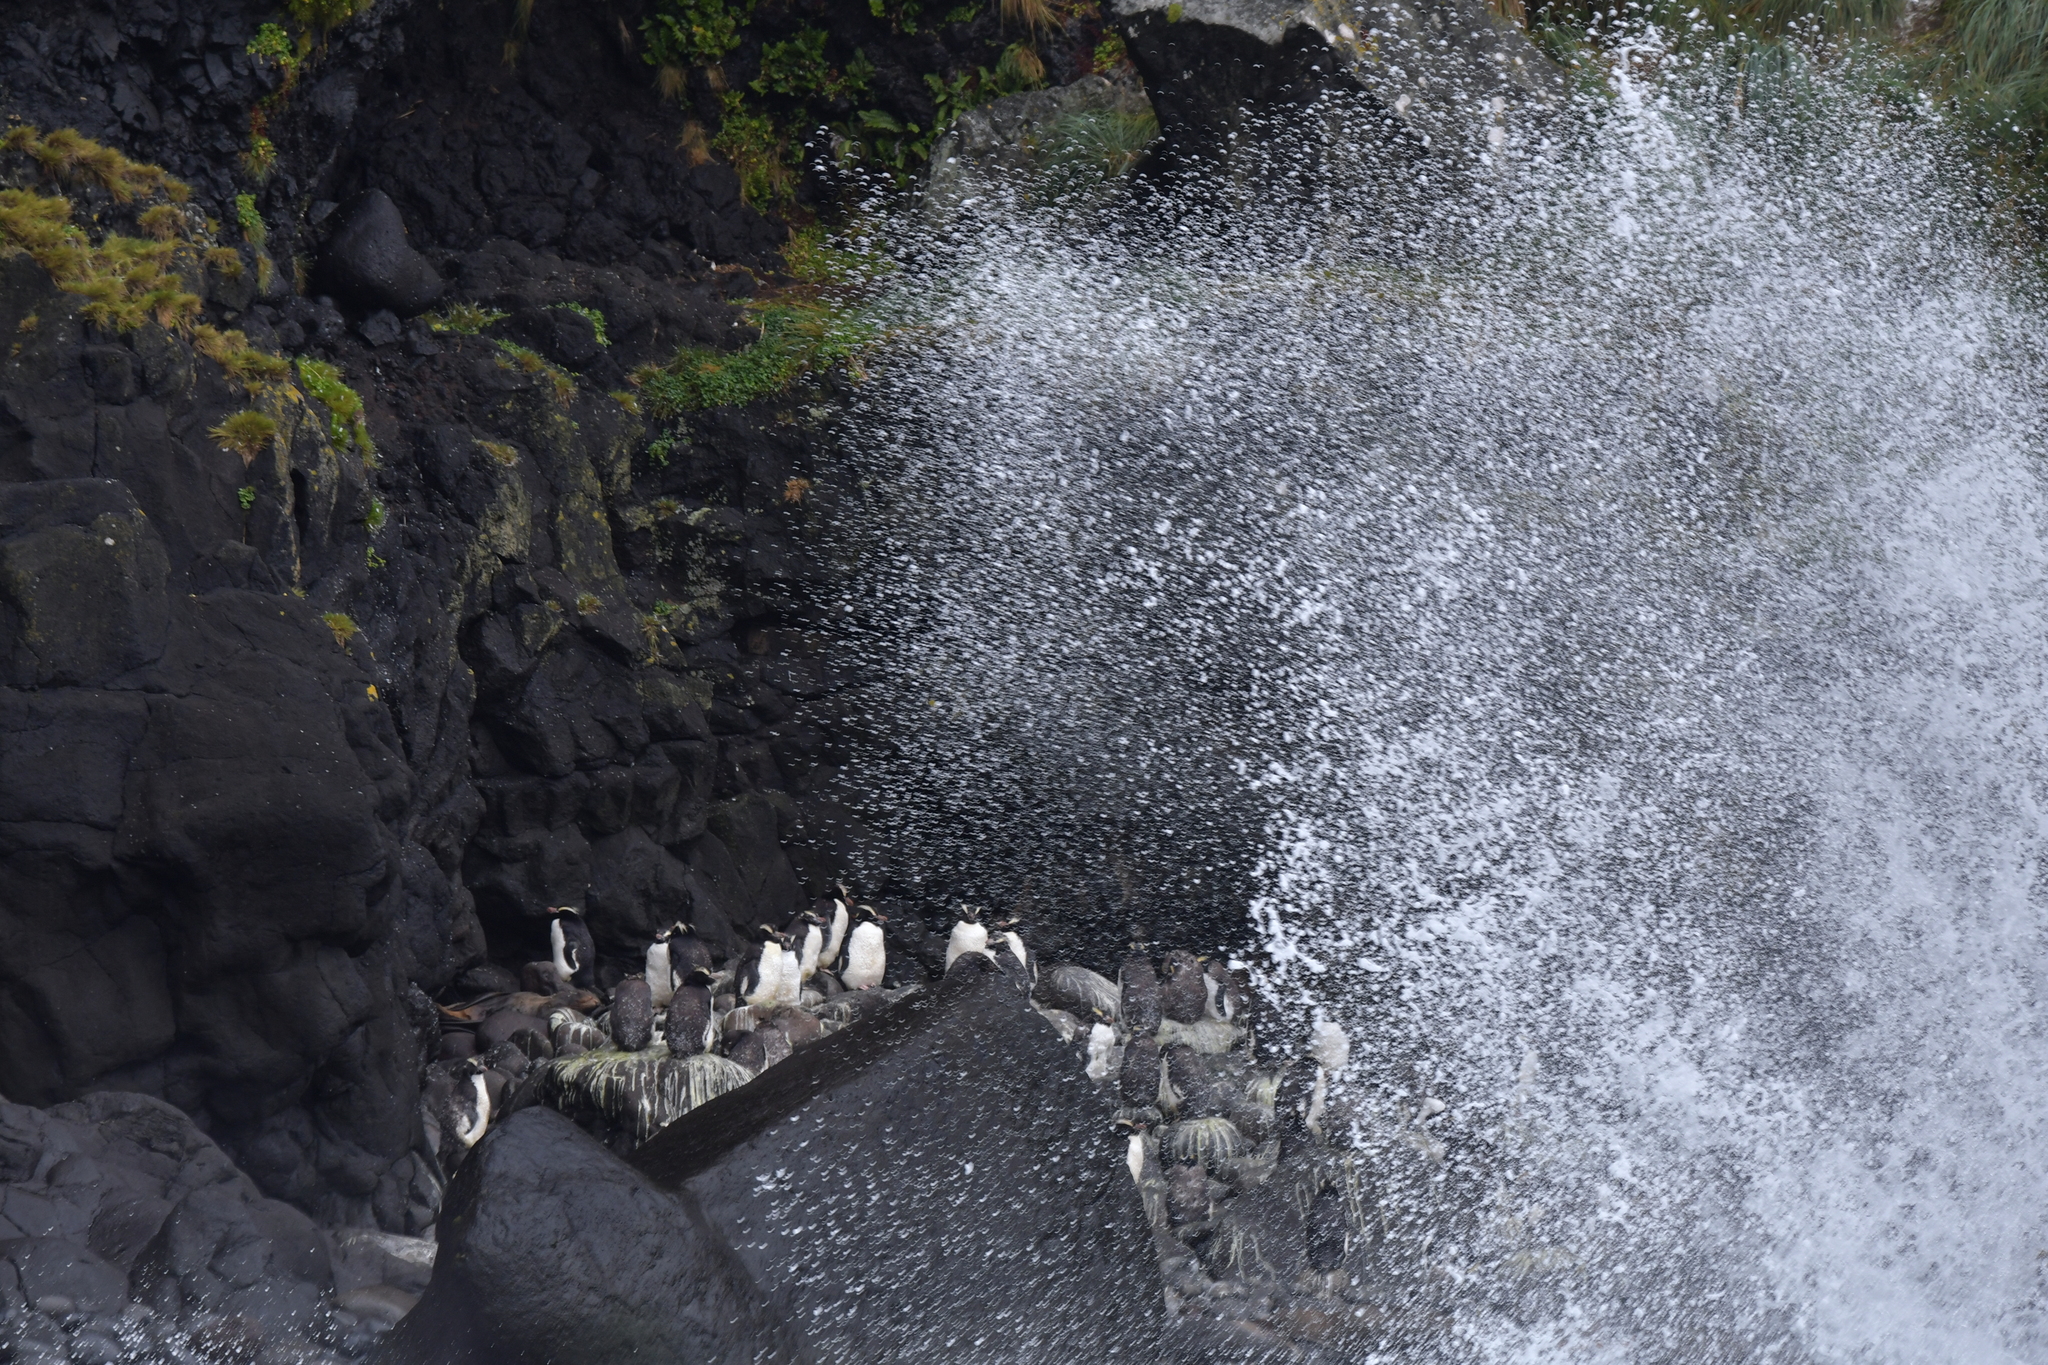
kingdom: Animalia
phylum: Chordata
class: Aves
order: Sphenisciformes
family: Spheniscidae
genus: Eudyptes
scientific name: Eudyptes sclateri
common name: Erect-crested penguin
